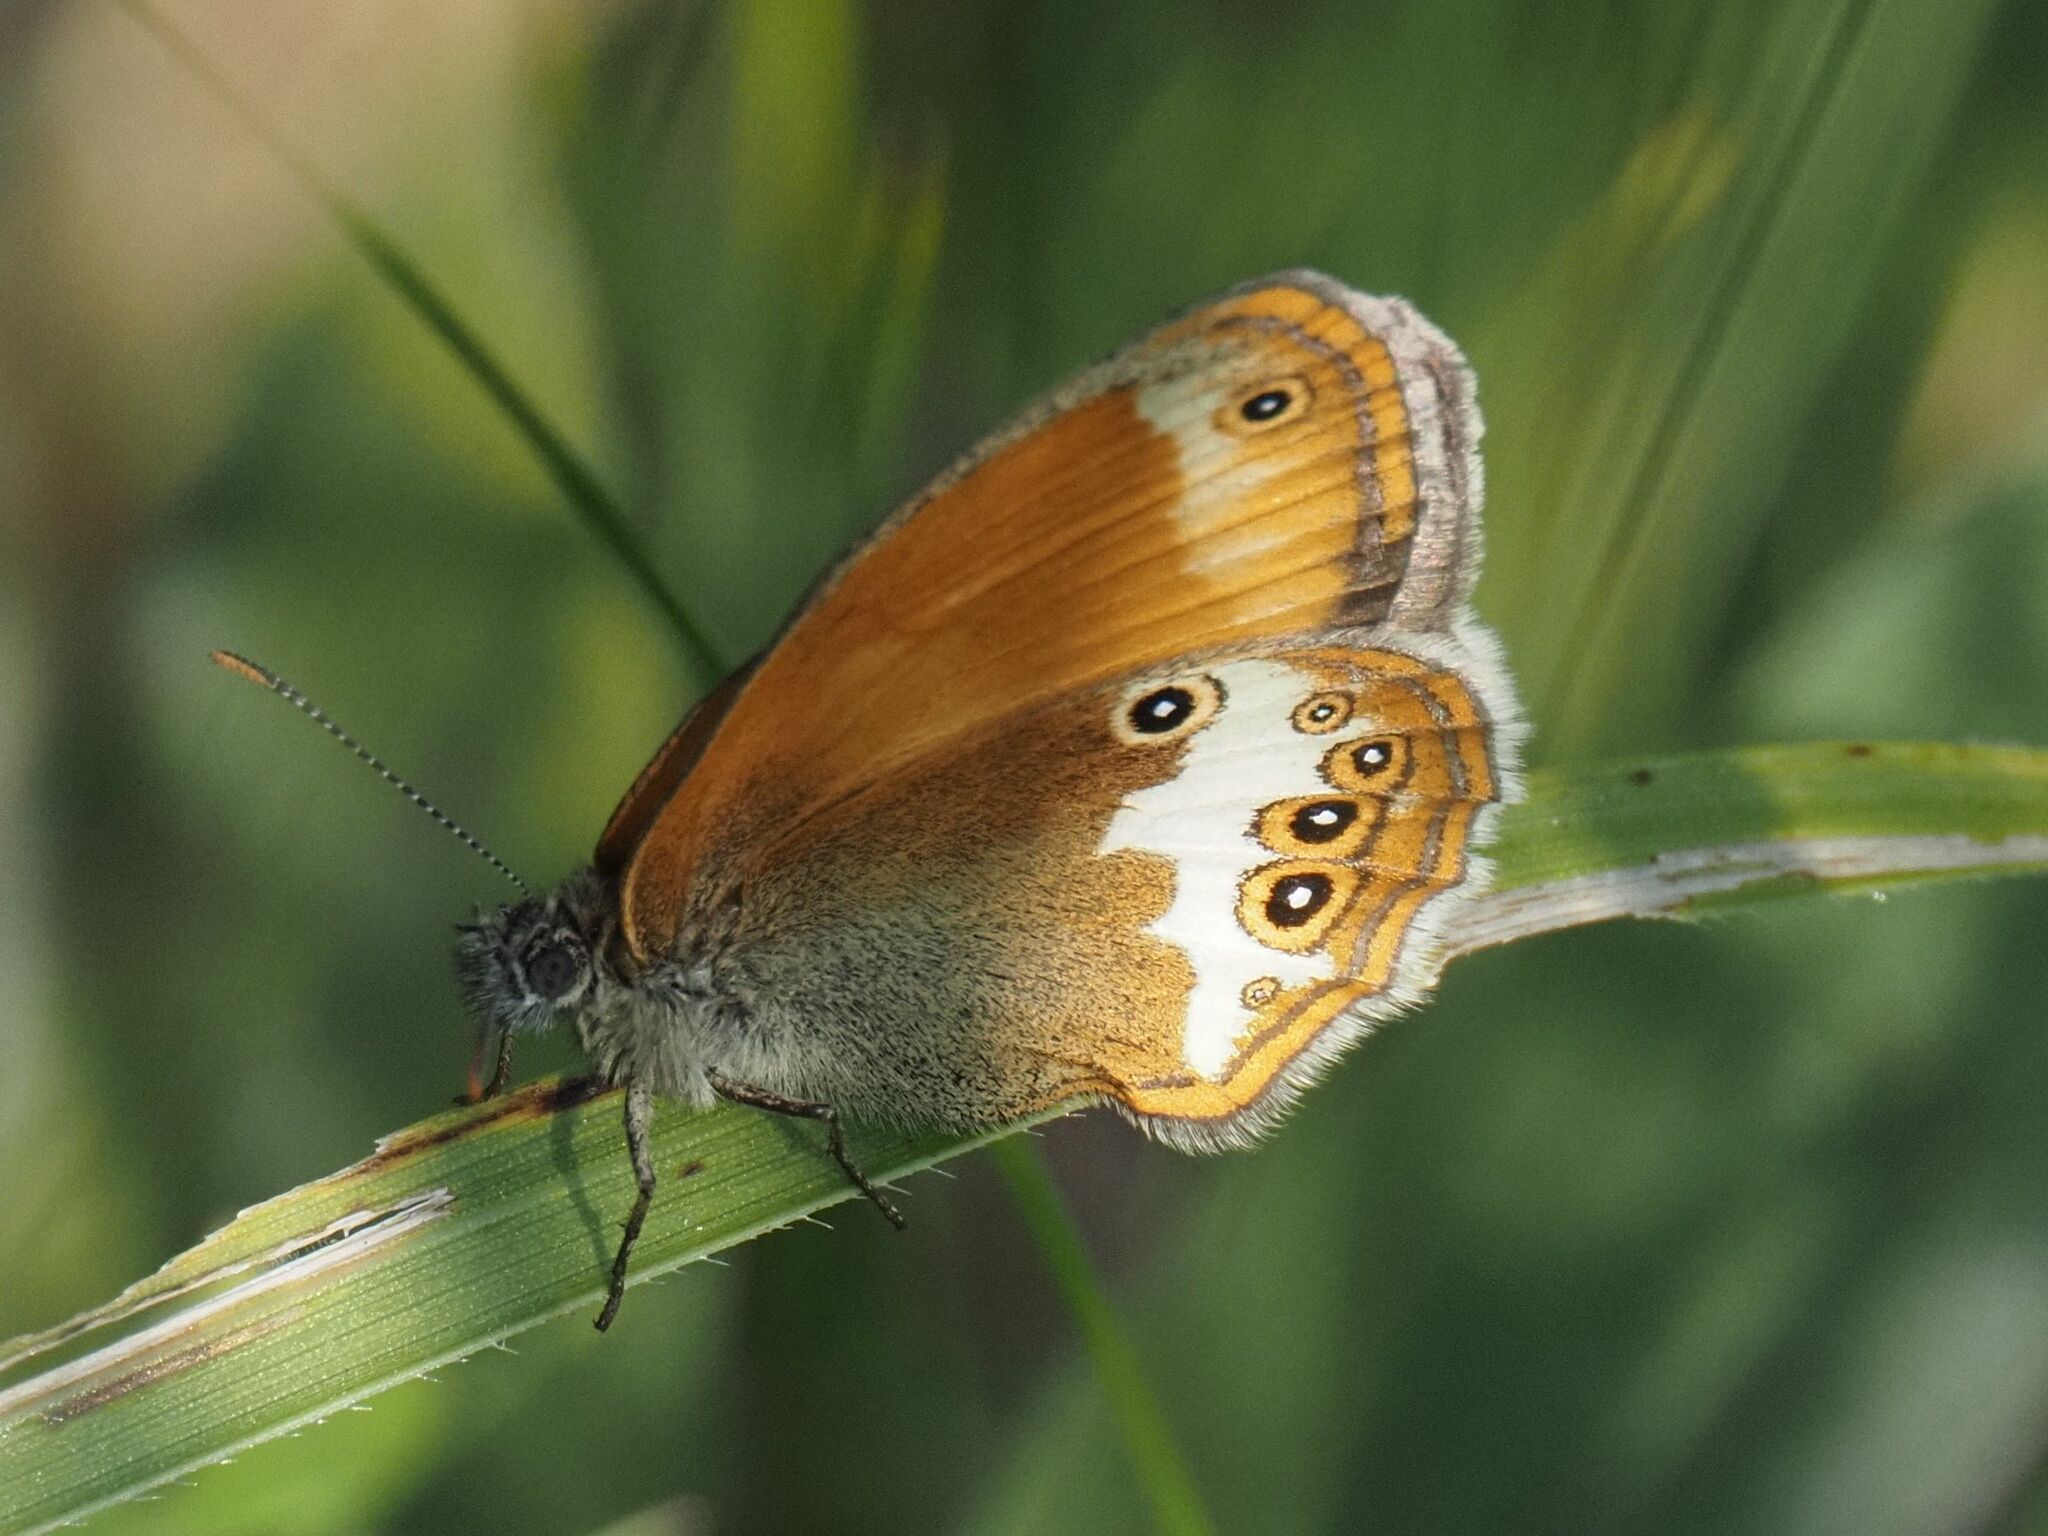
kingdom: Animalia
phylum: Arthropoda
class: Insecta
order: Lepidoptera
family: Nymphalidae
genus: Coenonympha
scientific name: Coenonympha arcania
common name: Pearly heath
